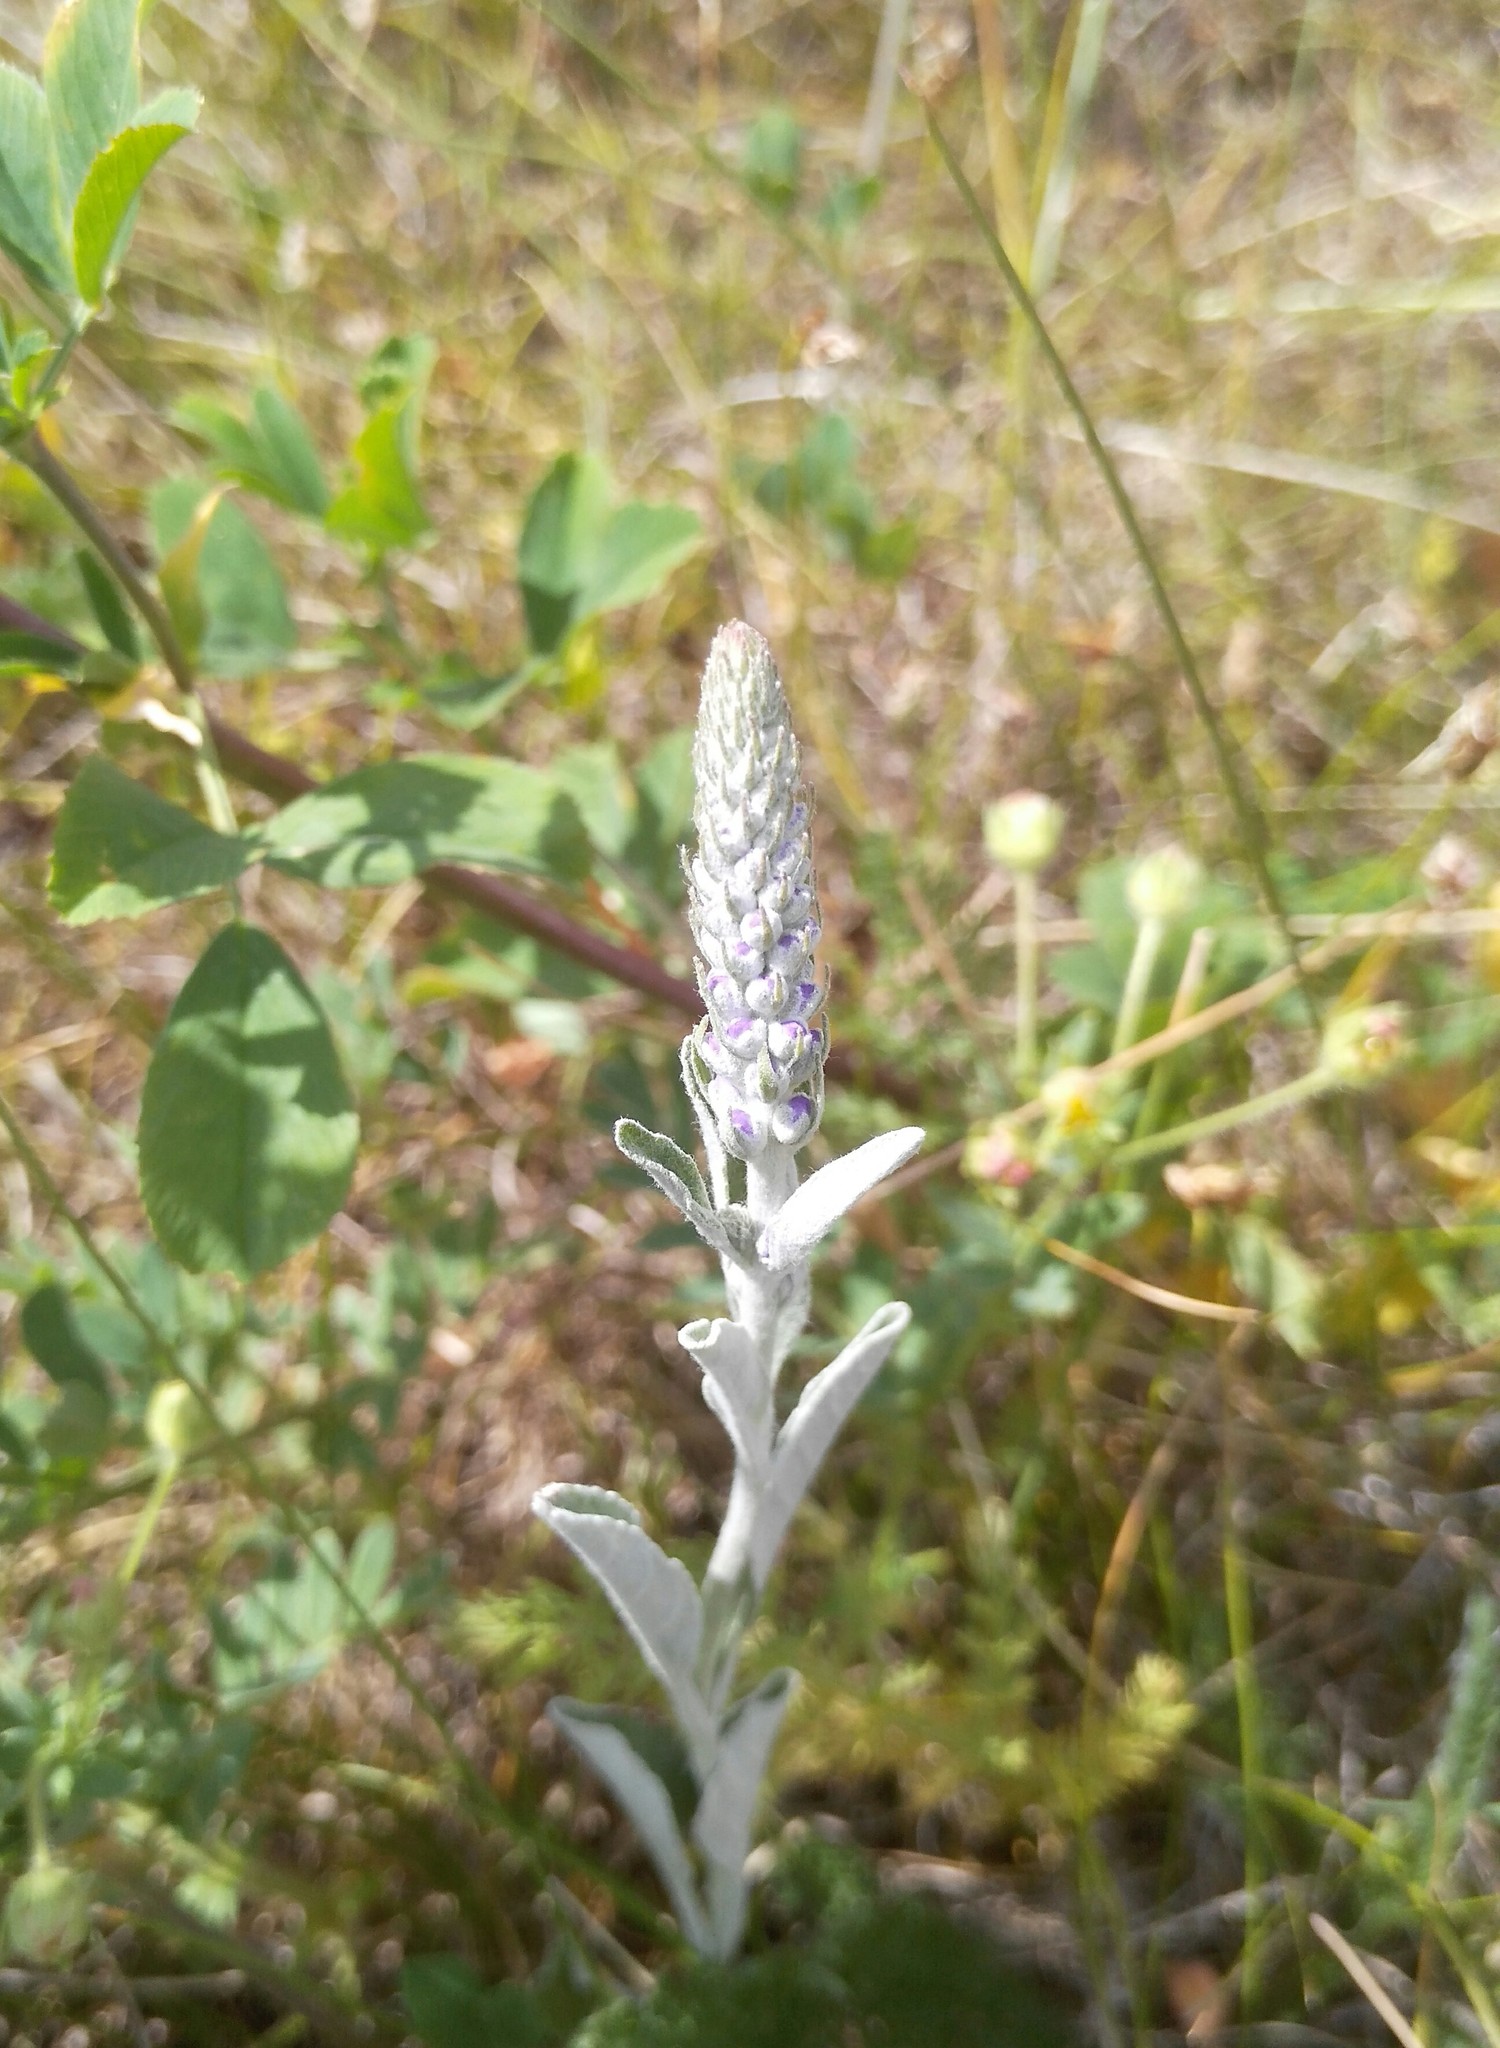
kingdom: Plantae
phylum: Tracheophyta
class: Magnoliopsida
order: Lamiales
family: Plantaginaceae
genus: Veronica
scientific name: Veronica incana
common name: Silver speedwell
